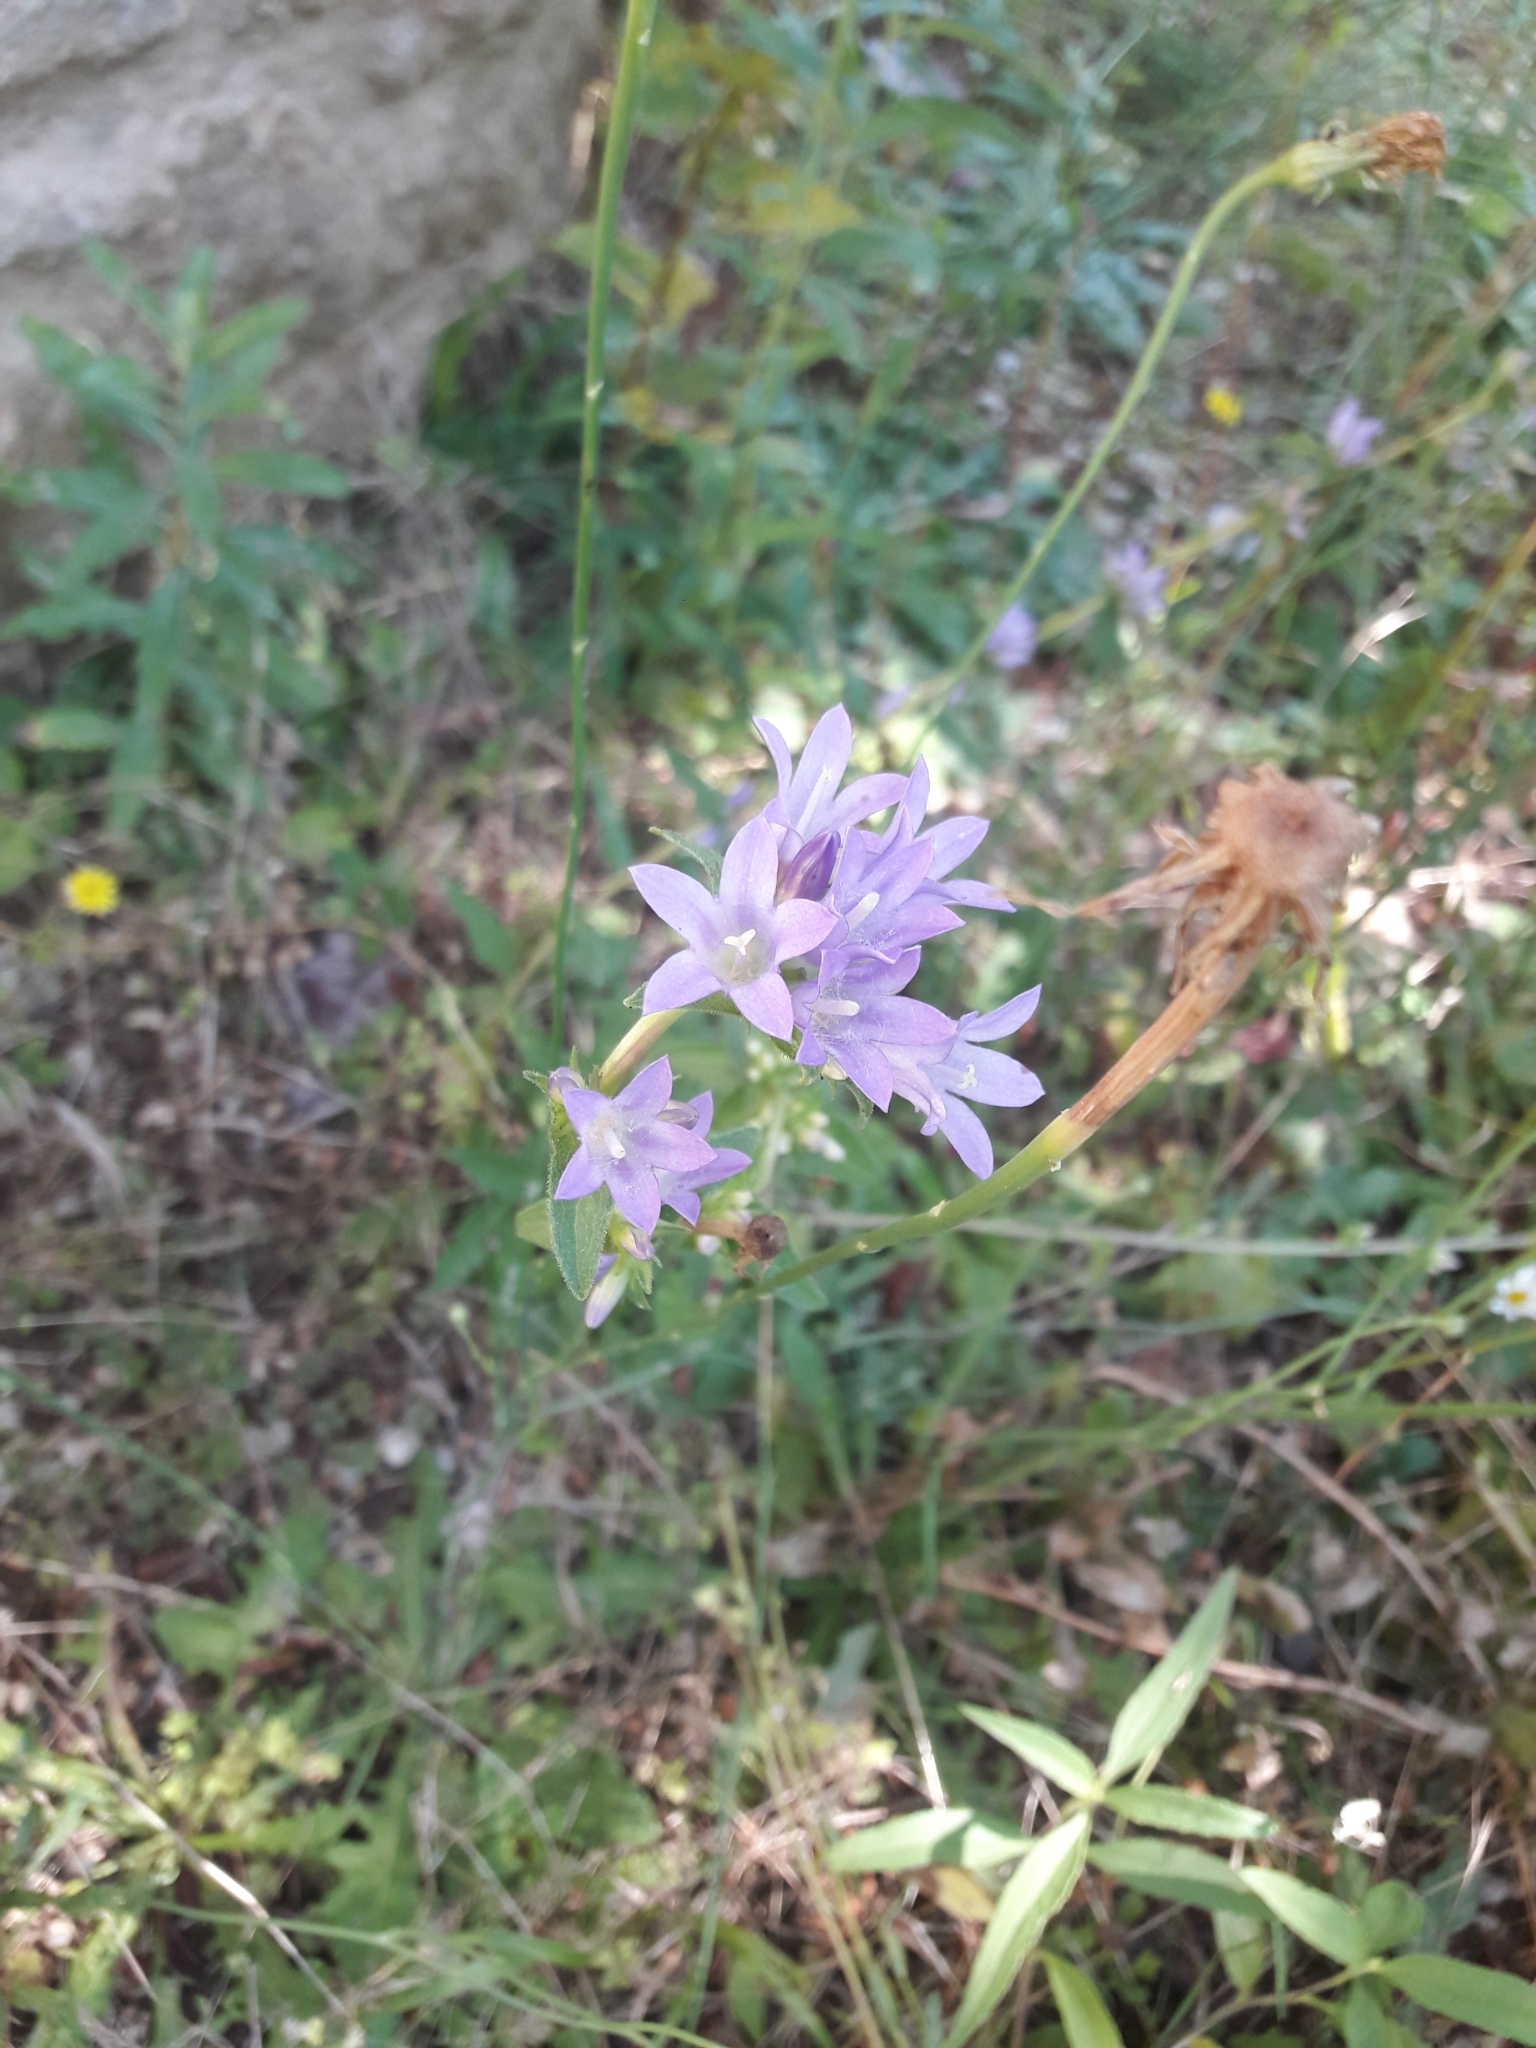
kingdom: Plantae
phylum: Tracheophyta
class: Magnoliopsida
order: Asterales
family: Campanulaceae
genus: Campanula
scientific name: Campanula rapunculus
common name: Rampion bellflower
